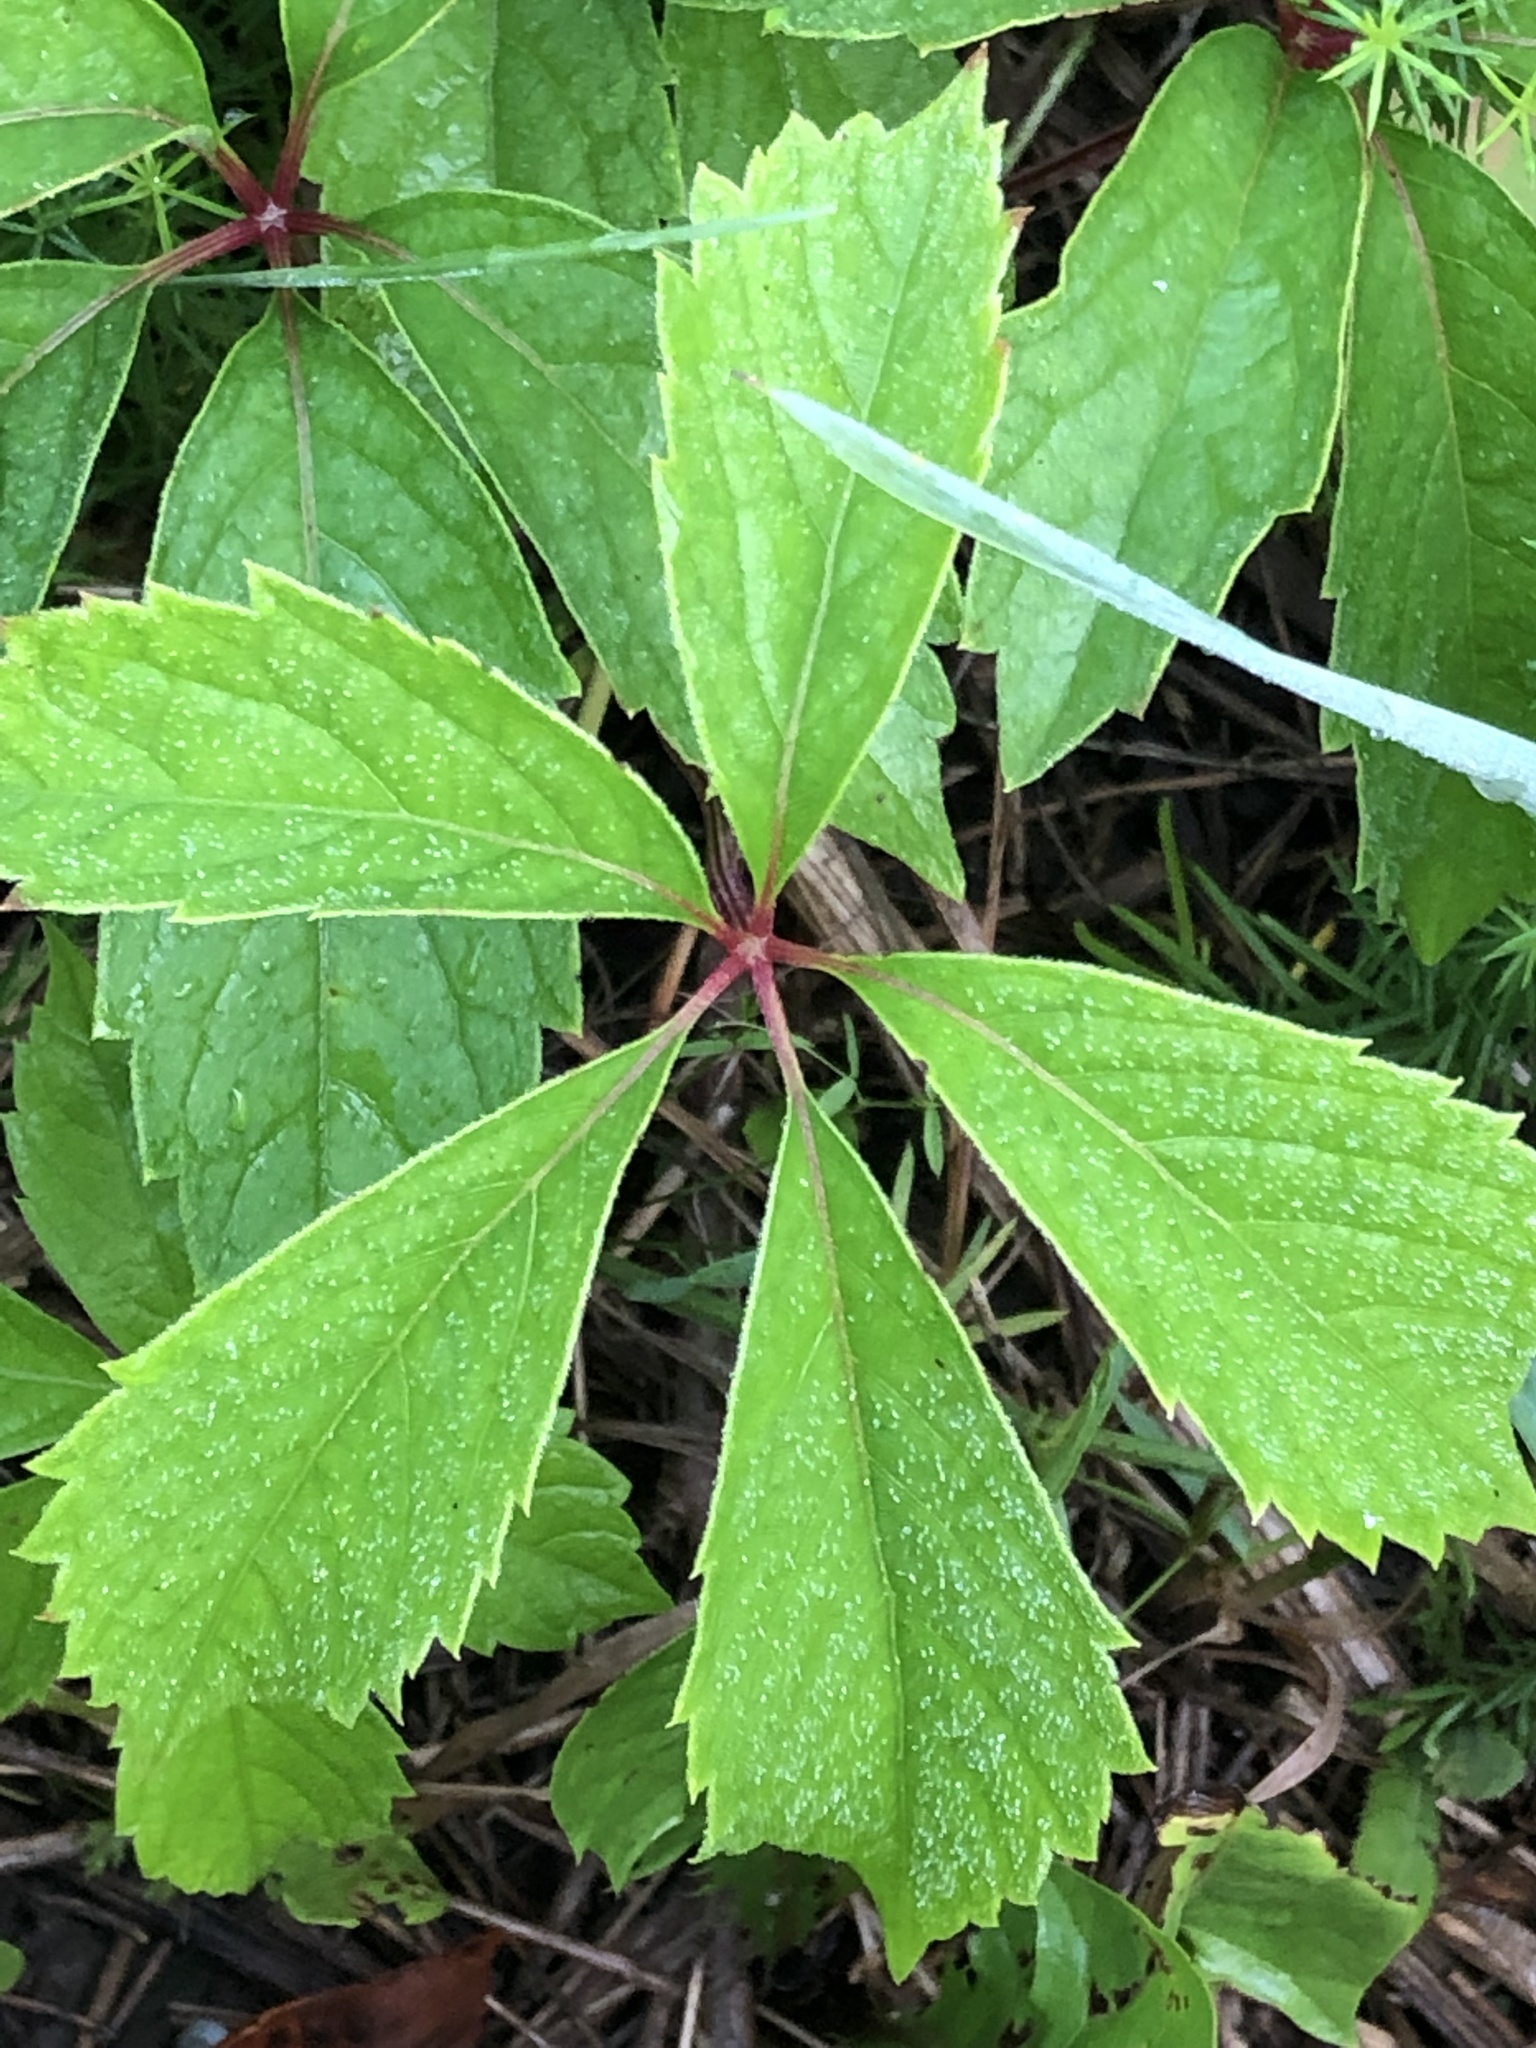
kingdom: Plantae
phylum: Tracheophyta
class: Magnoliopsida
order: Vitales
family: Vitaceae
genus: Parthenocissus
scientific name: Parthenocissus quinquefolia
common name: Virginia-creeper
